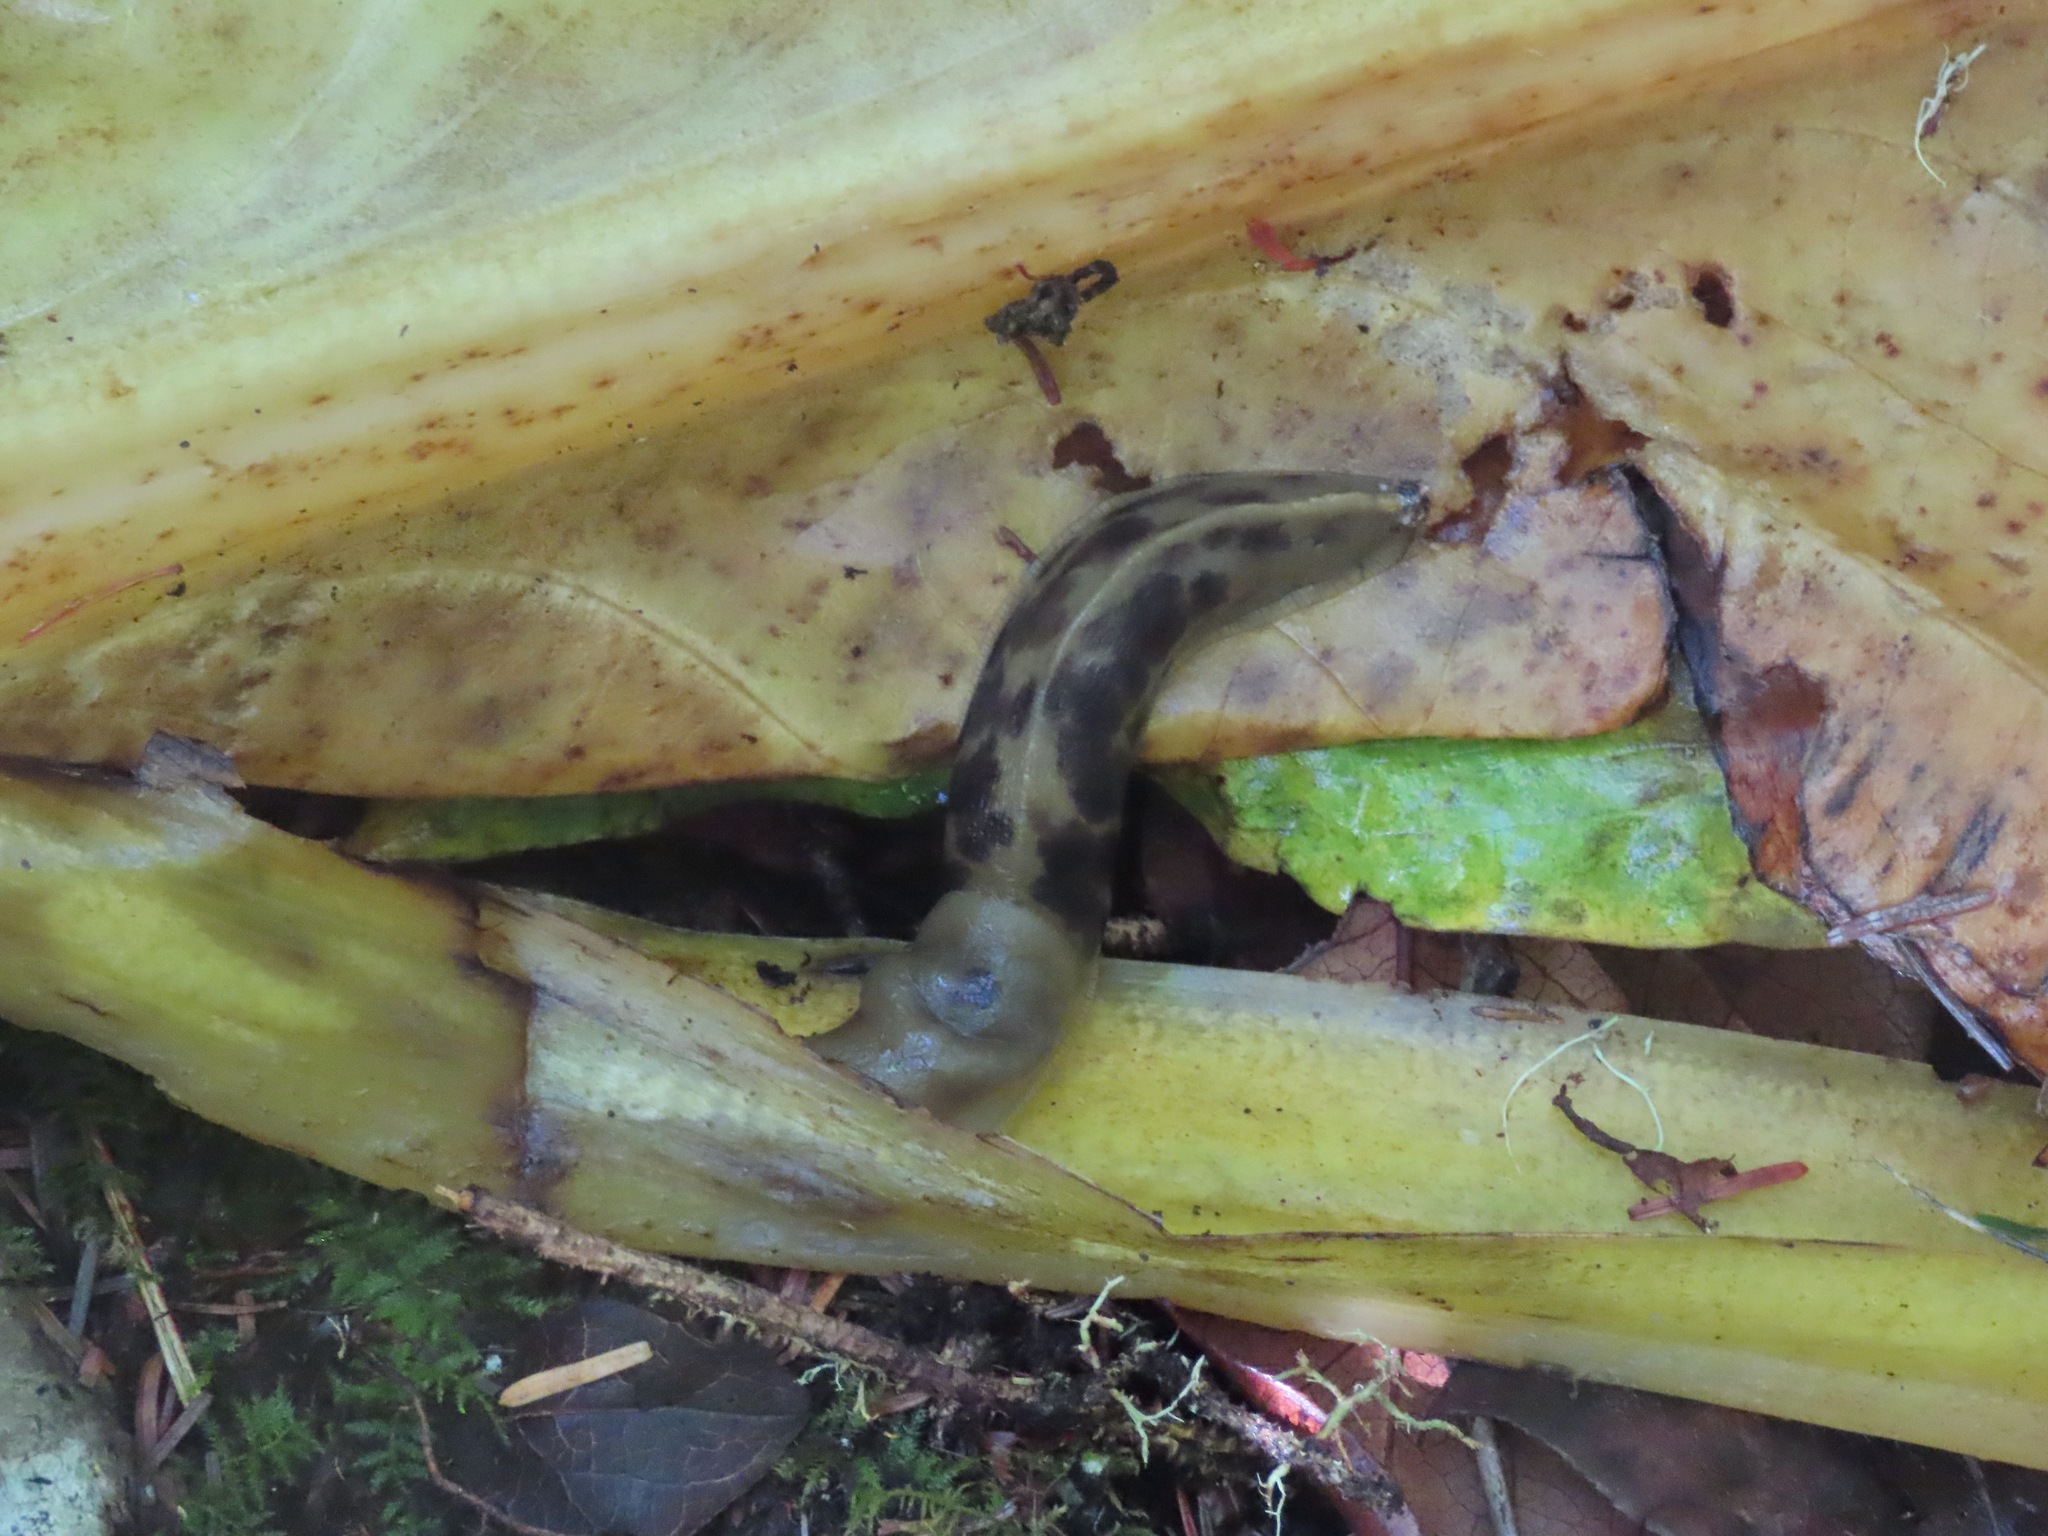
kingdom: Animalia
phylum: Mollusca
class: Gastropoda
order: Stylommatophora
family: Ariolimacidae
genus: Ariolimax
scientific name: Ariolimax columbianus
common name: Pacific banana slug
